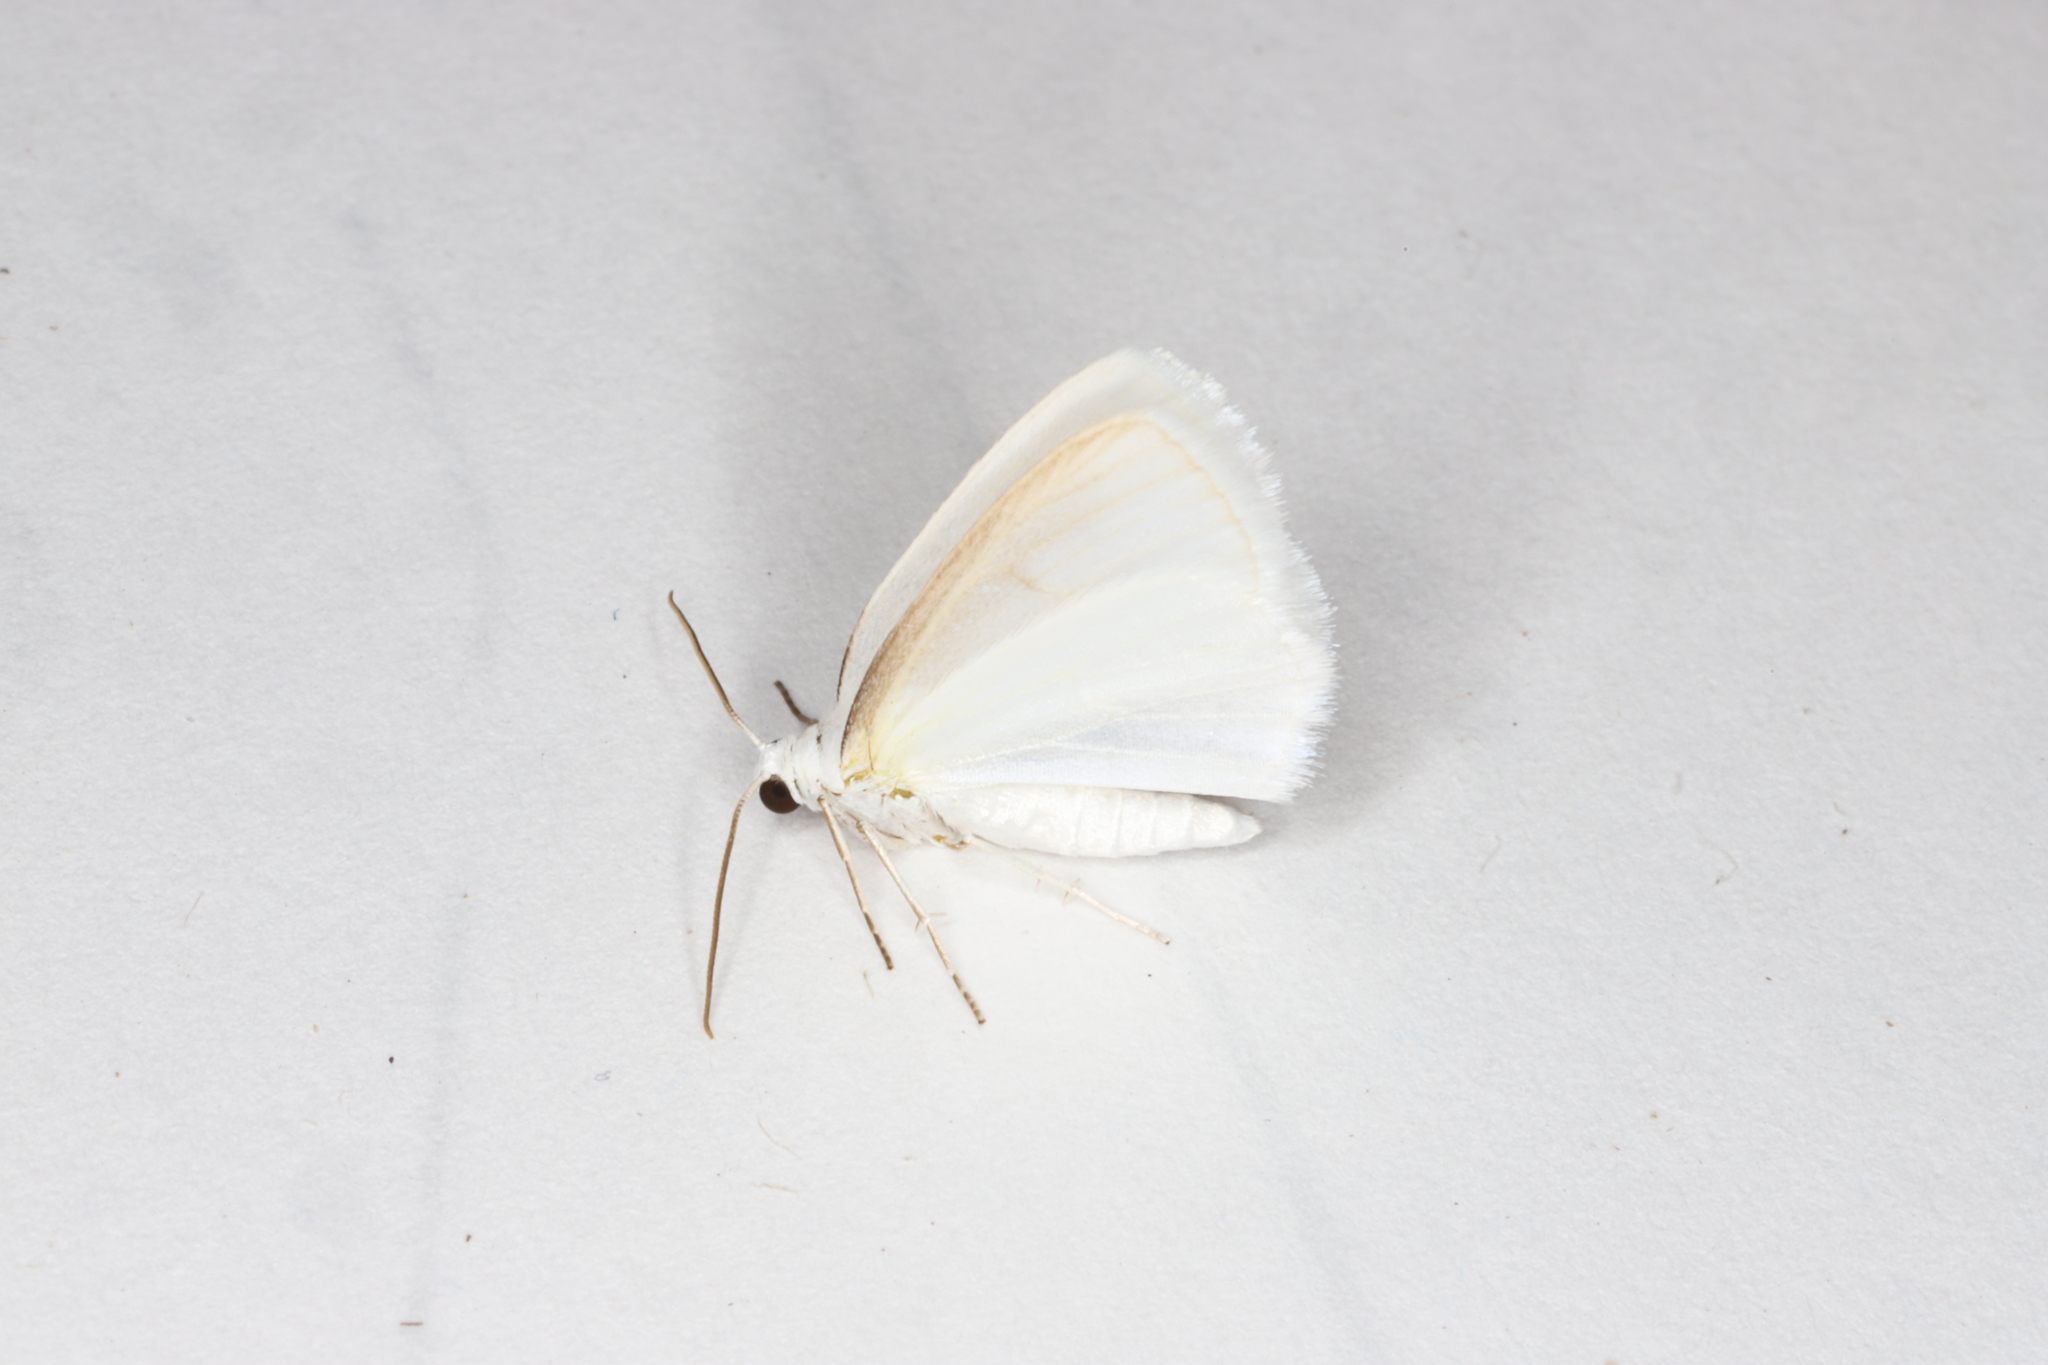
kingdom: Animalia
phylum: Arthropoda
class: Insecta
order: Lepidoptera
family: Geometridae
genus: Lomographa
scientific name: Lomographa vestaliata
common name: White spring moth
